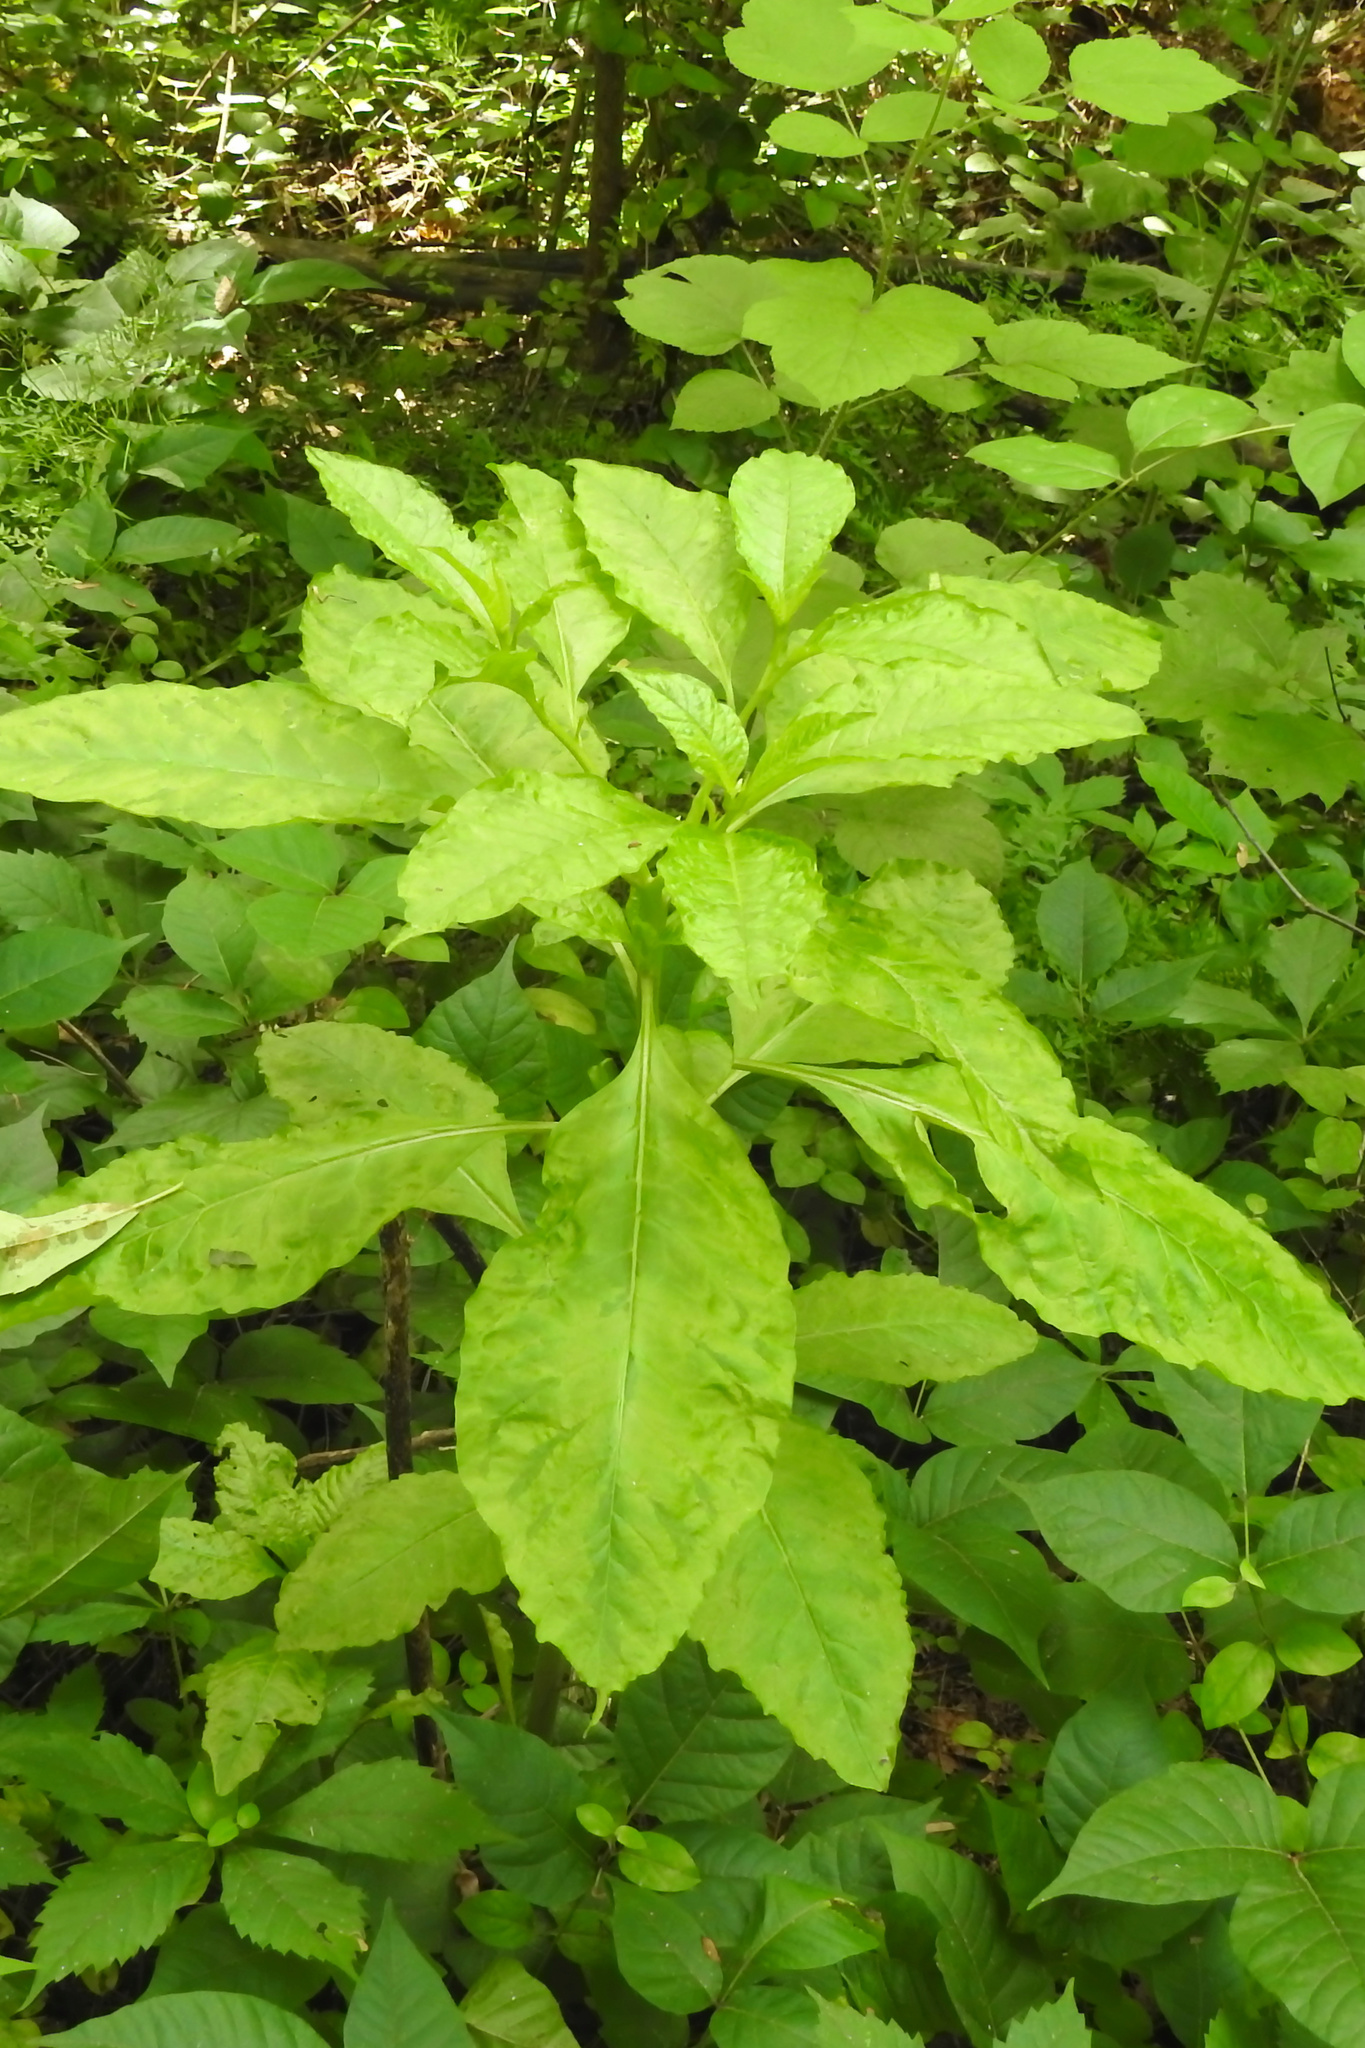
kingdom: Plantae
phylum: Tracheophyta
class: Magnoliopsida
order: Caryophyllales
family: Phytolaccaceae
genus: Phytolacca
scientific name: Phytolacca americana
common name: American pokeweed
